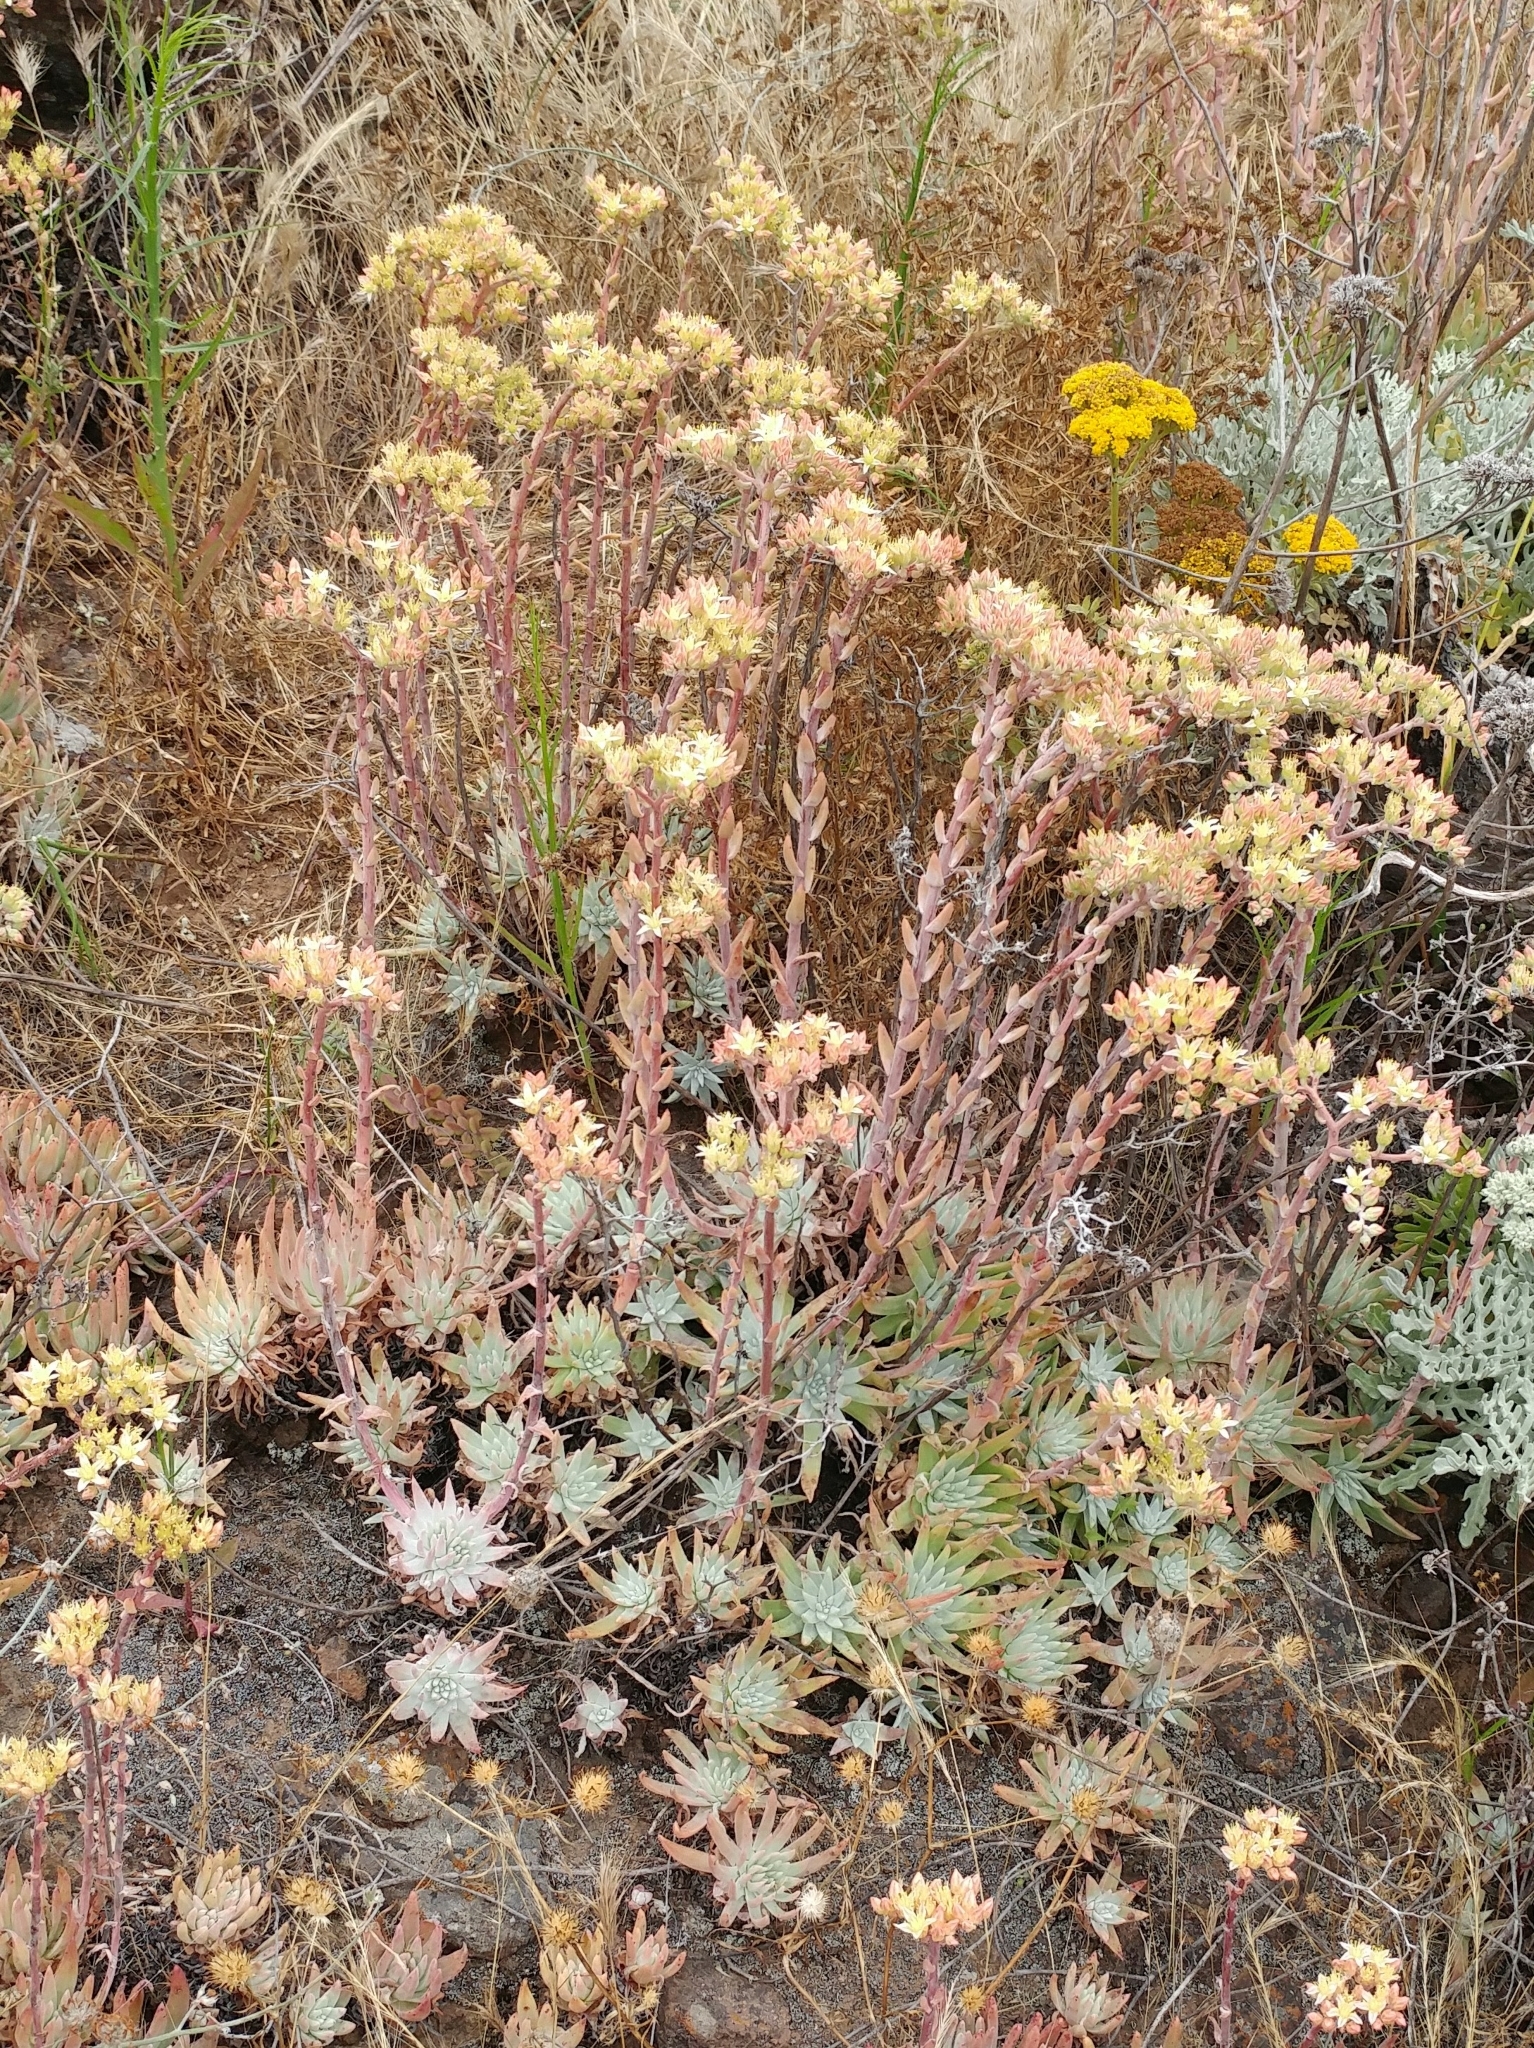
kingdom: Plantae
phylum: Tracheophyta
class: Magnoliopsida
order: Saxifragales
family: Crassulaceae
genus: Dudleya
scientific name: Dudleya virens
